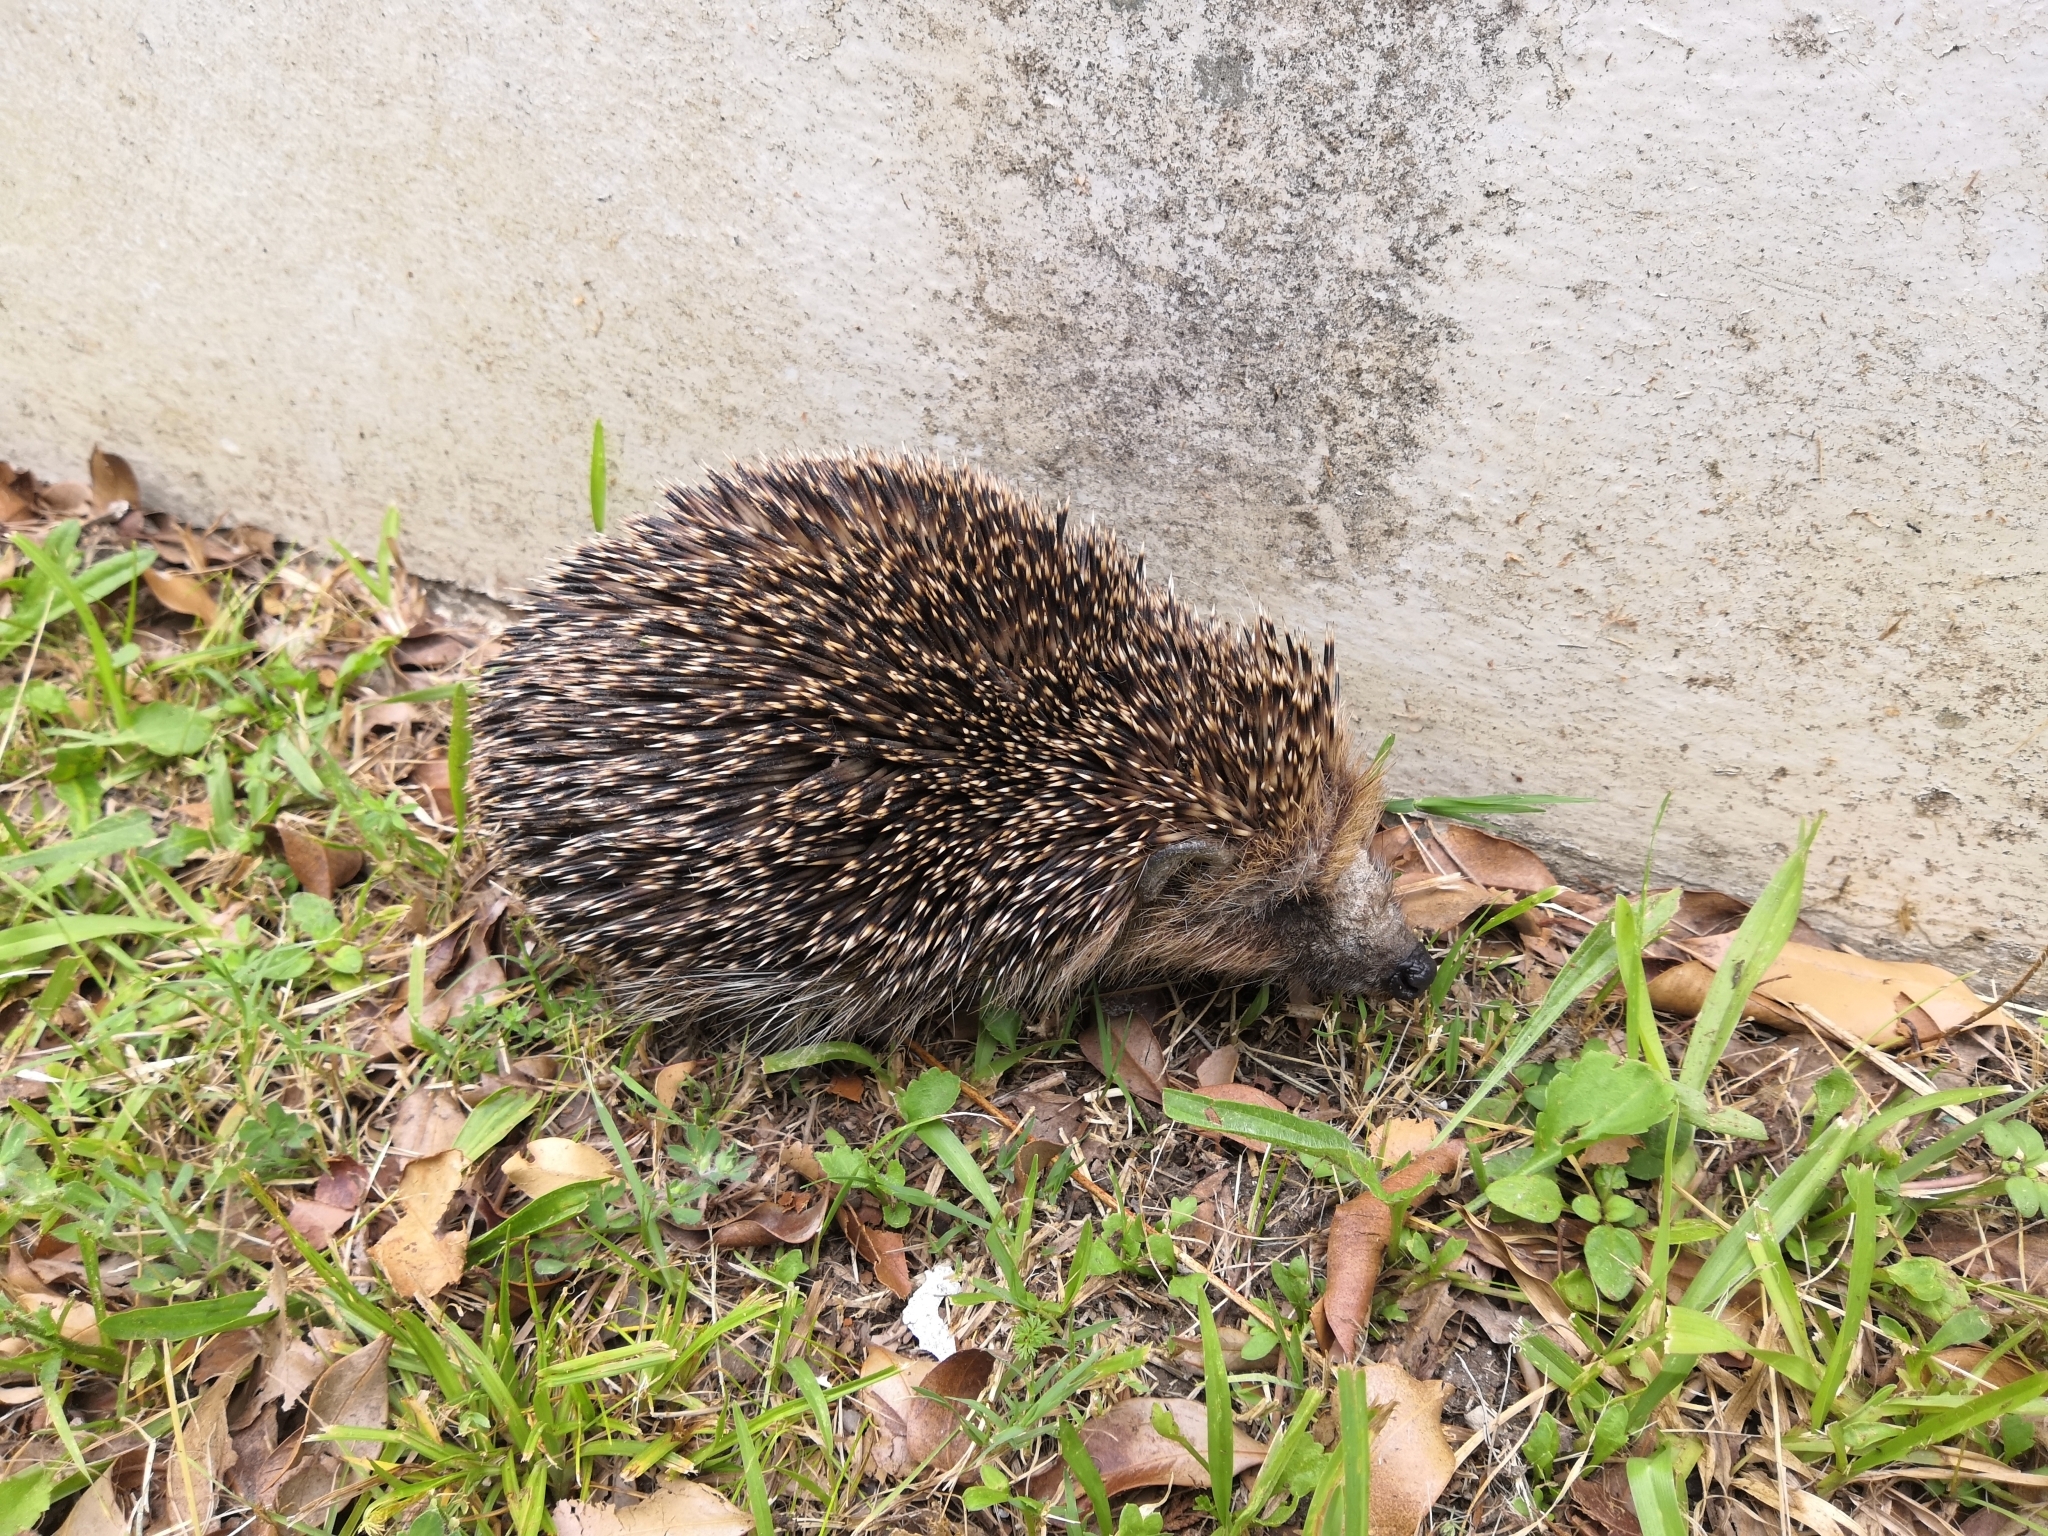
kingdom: Animalia
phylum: Chordata
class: Mammalia
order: Erinaceomorpha
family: Erinaceidae
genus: Erinaceus
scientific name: Erinaceus europaeus
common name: West european hedgehog
